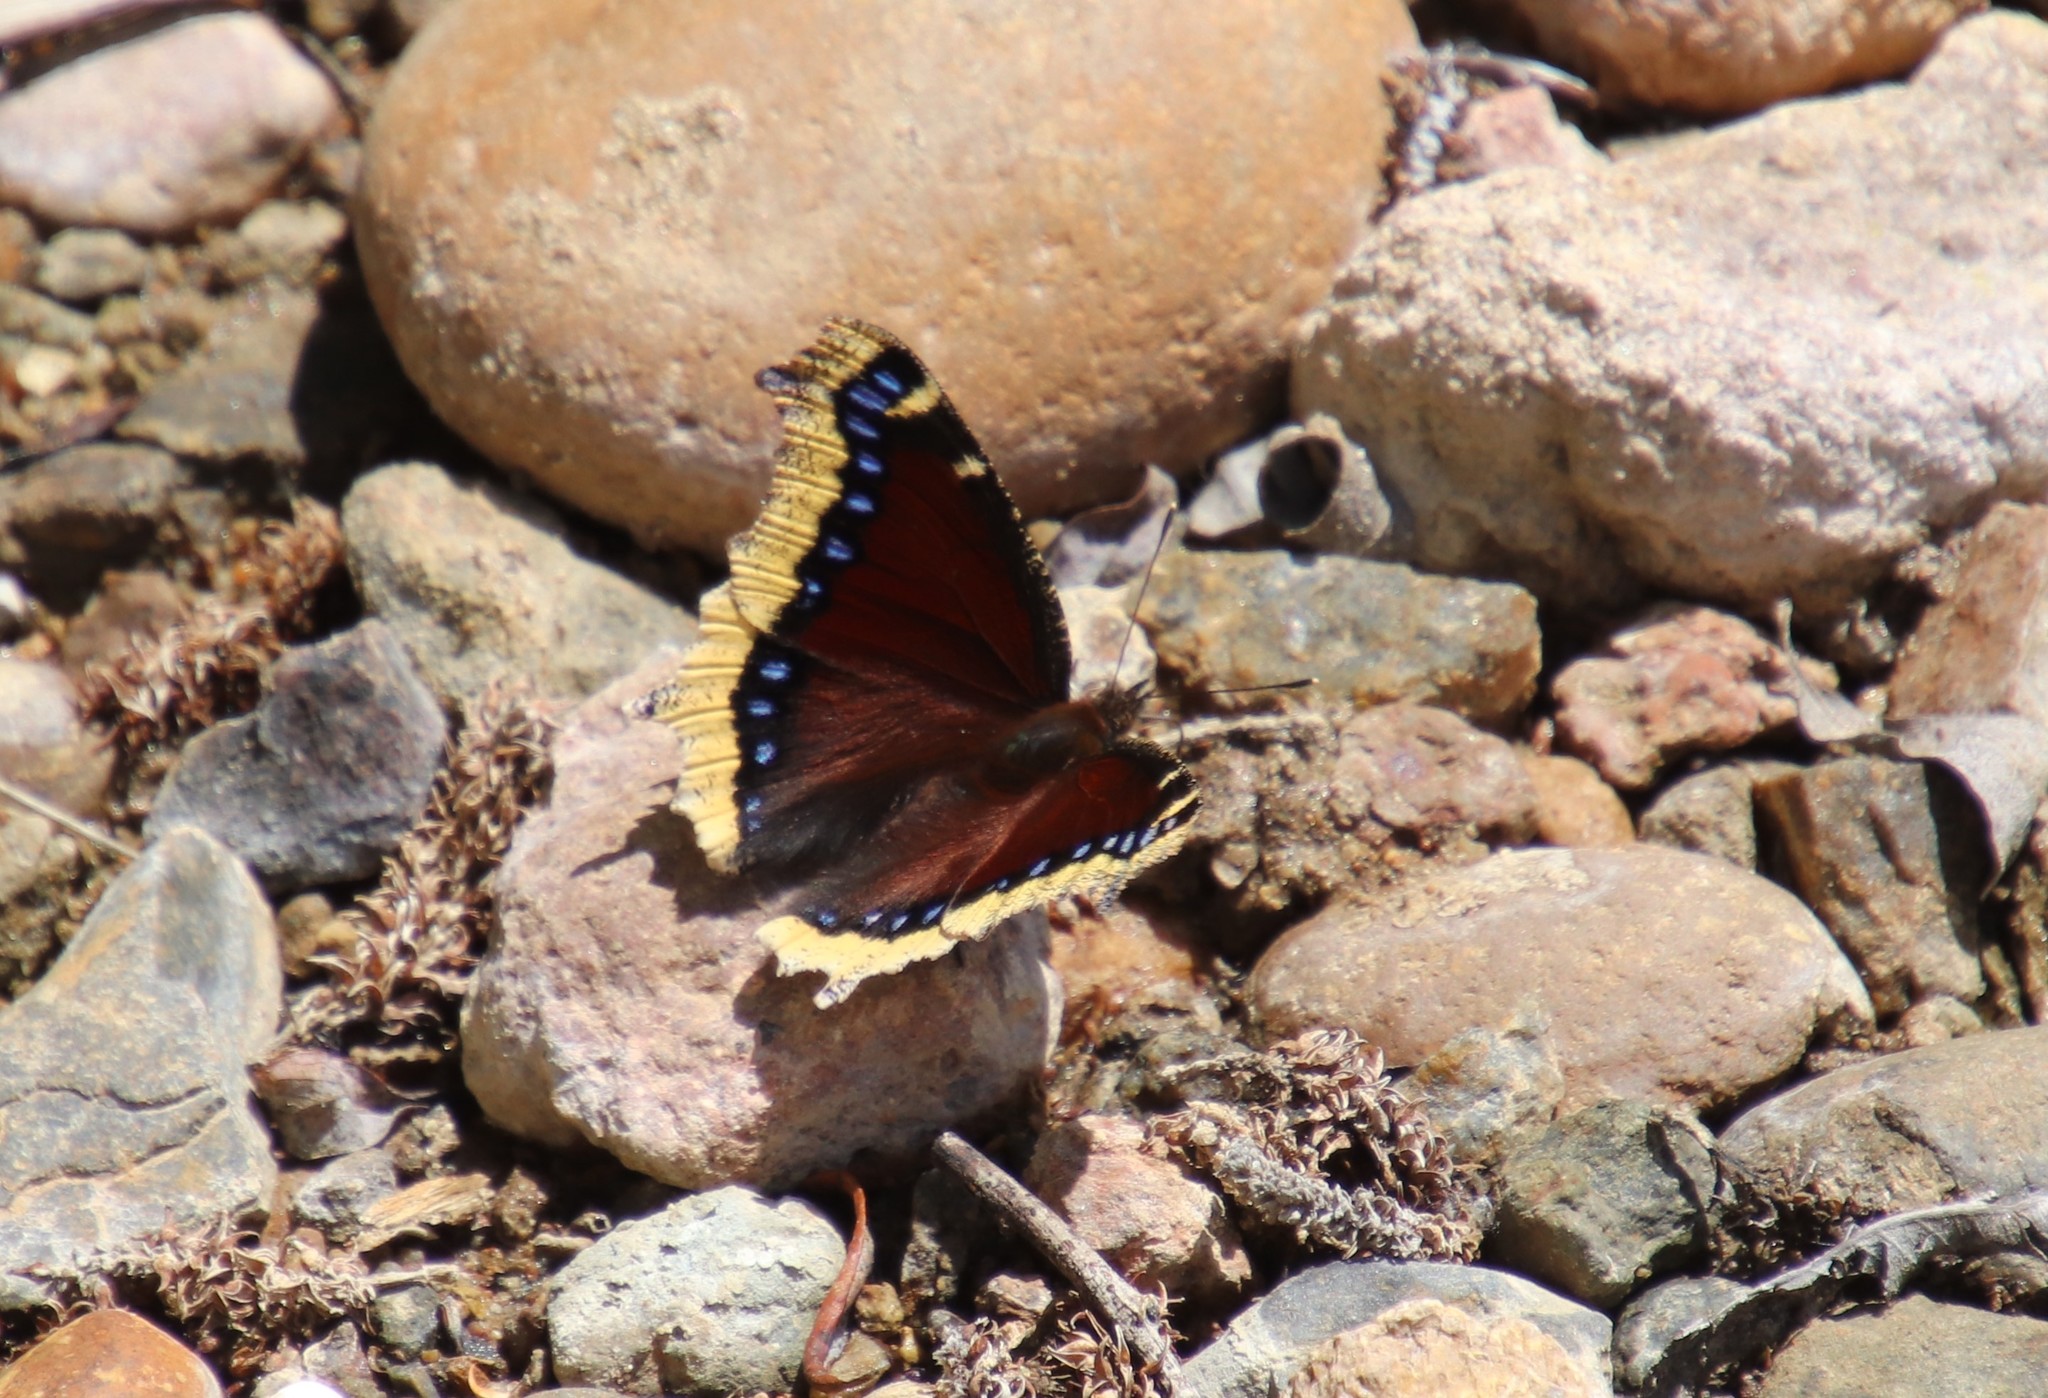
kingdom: Animalia
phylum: Arthropoda
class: Insecta
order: Lepidoptera
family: Nymphalidae
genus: Nymphalis
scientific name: Nymphalis antiopa
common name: Camberwell beauty
